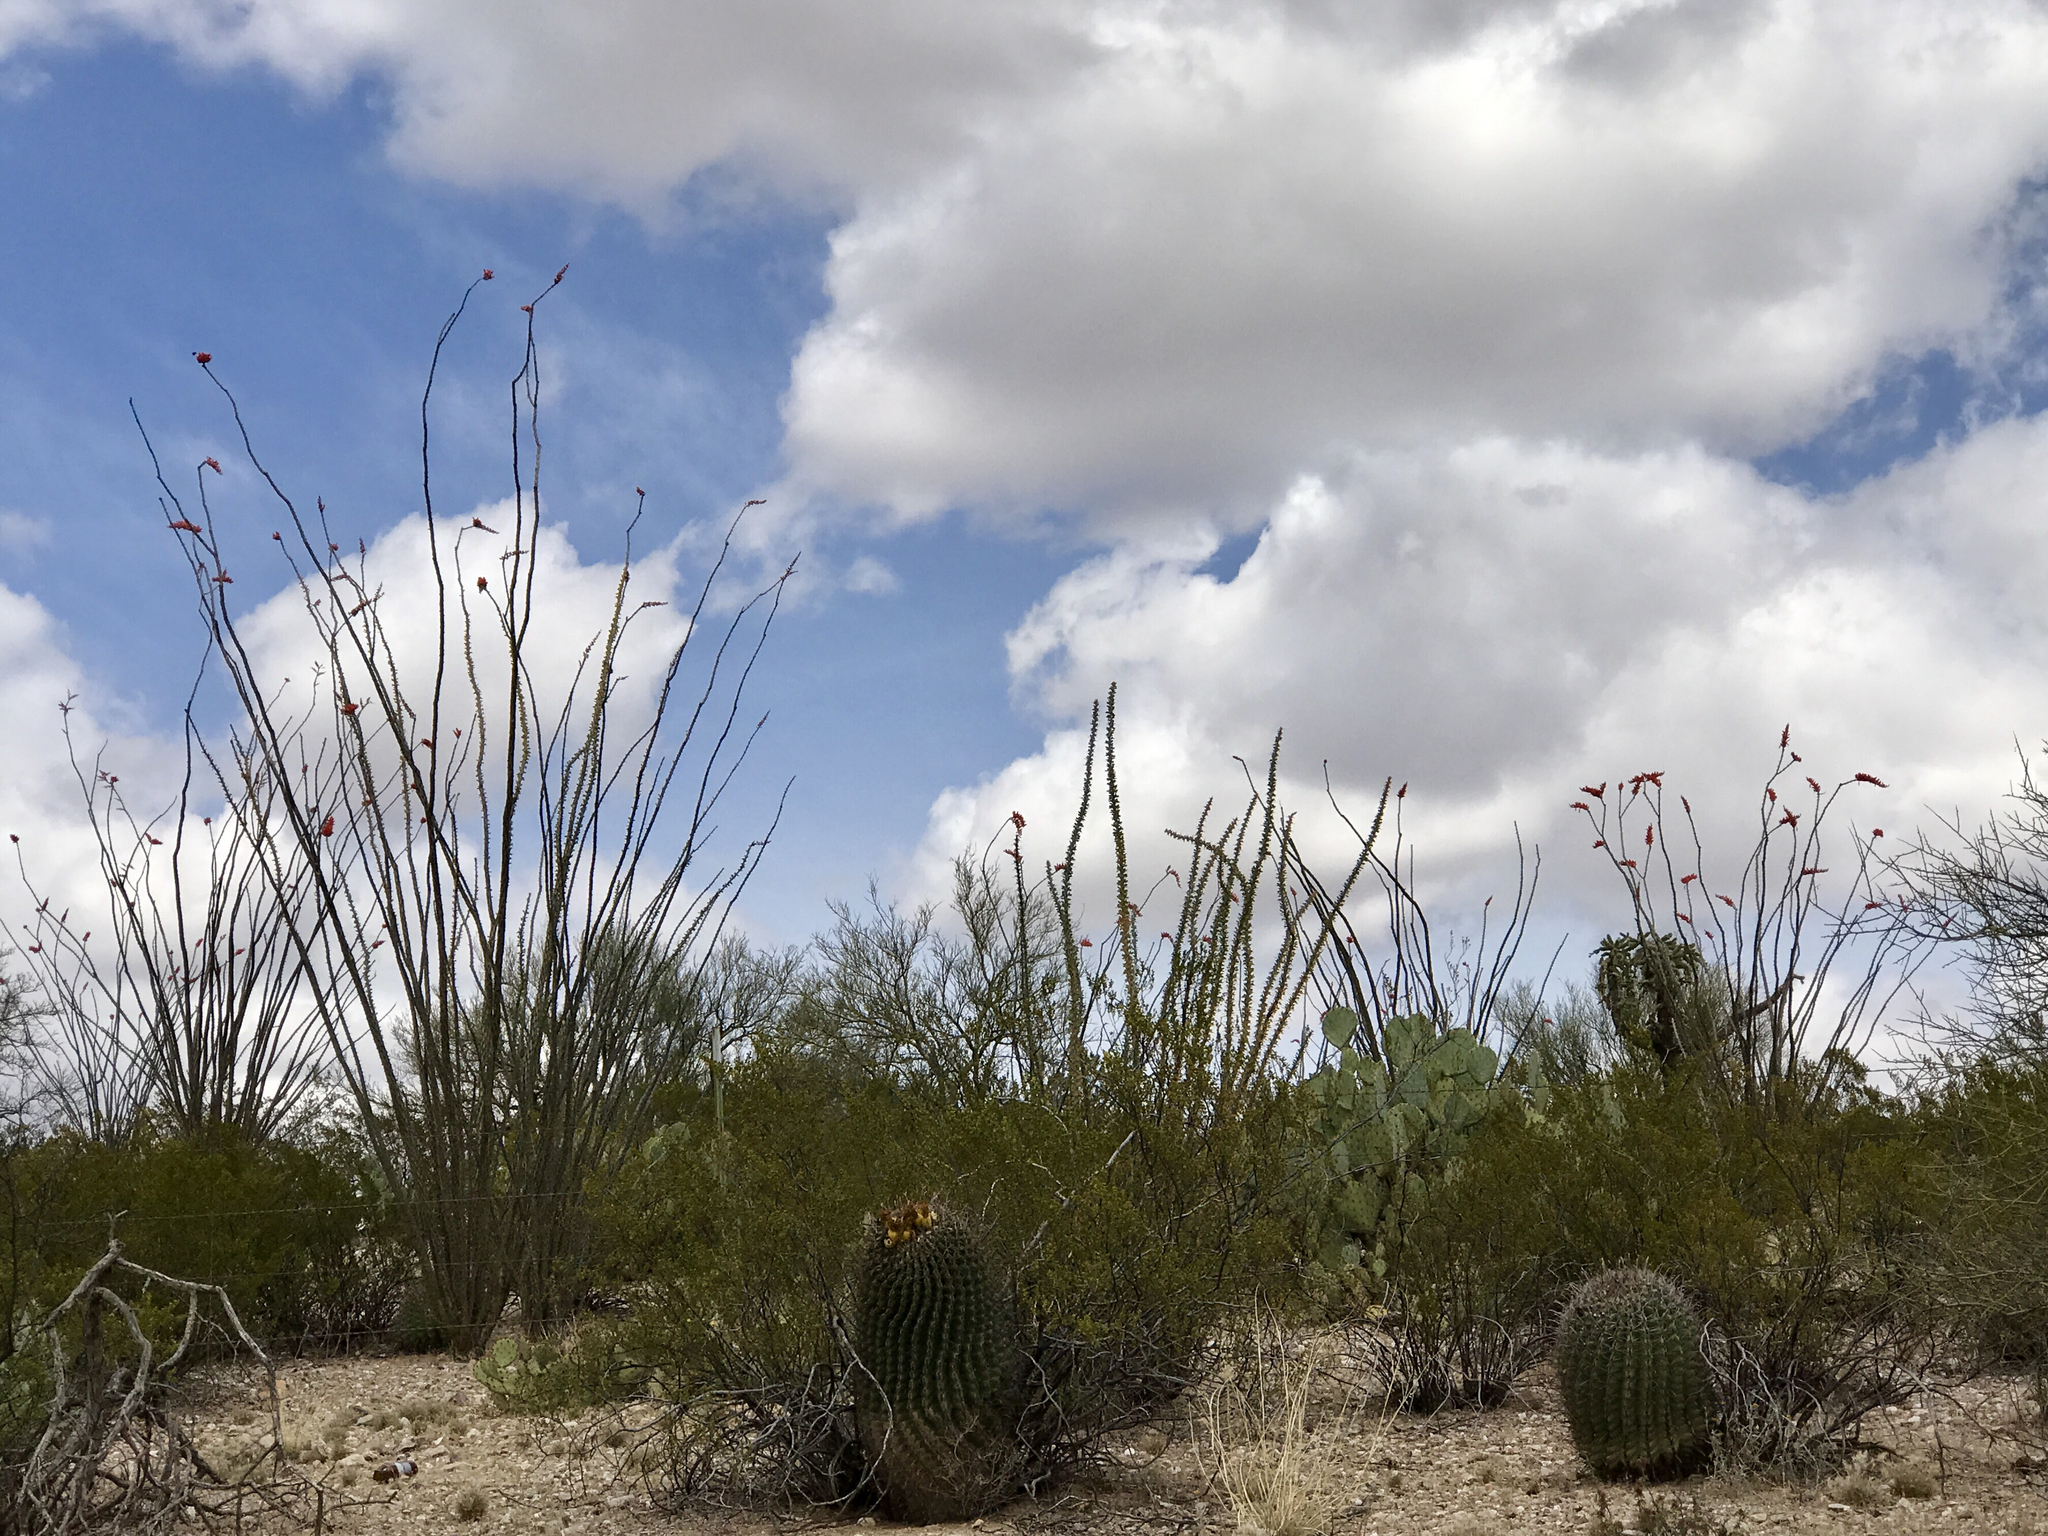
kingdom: Plantae
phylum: Tracheophyta
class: Magnoliopsida
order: Ericales
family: Fouquieriaceae
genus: Fouquieria
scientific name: Fouquieria splendens
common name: Vine-cactus
